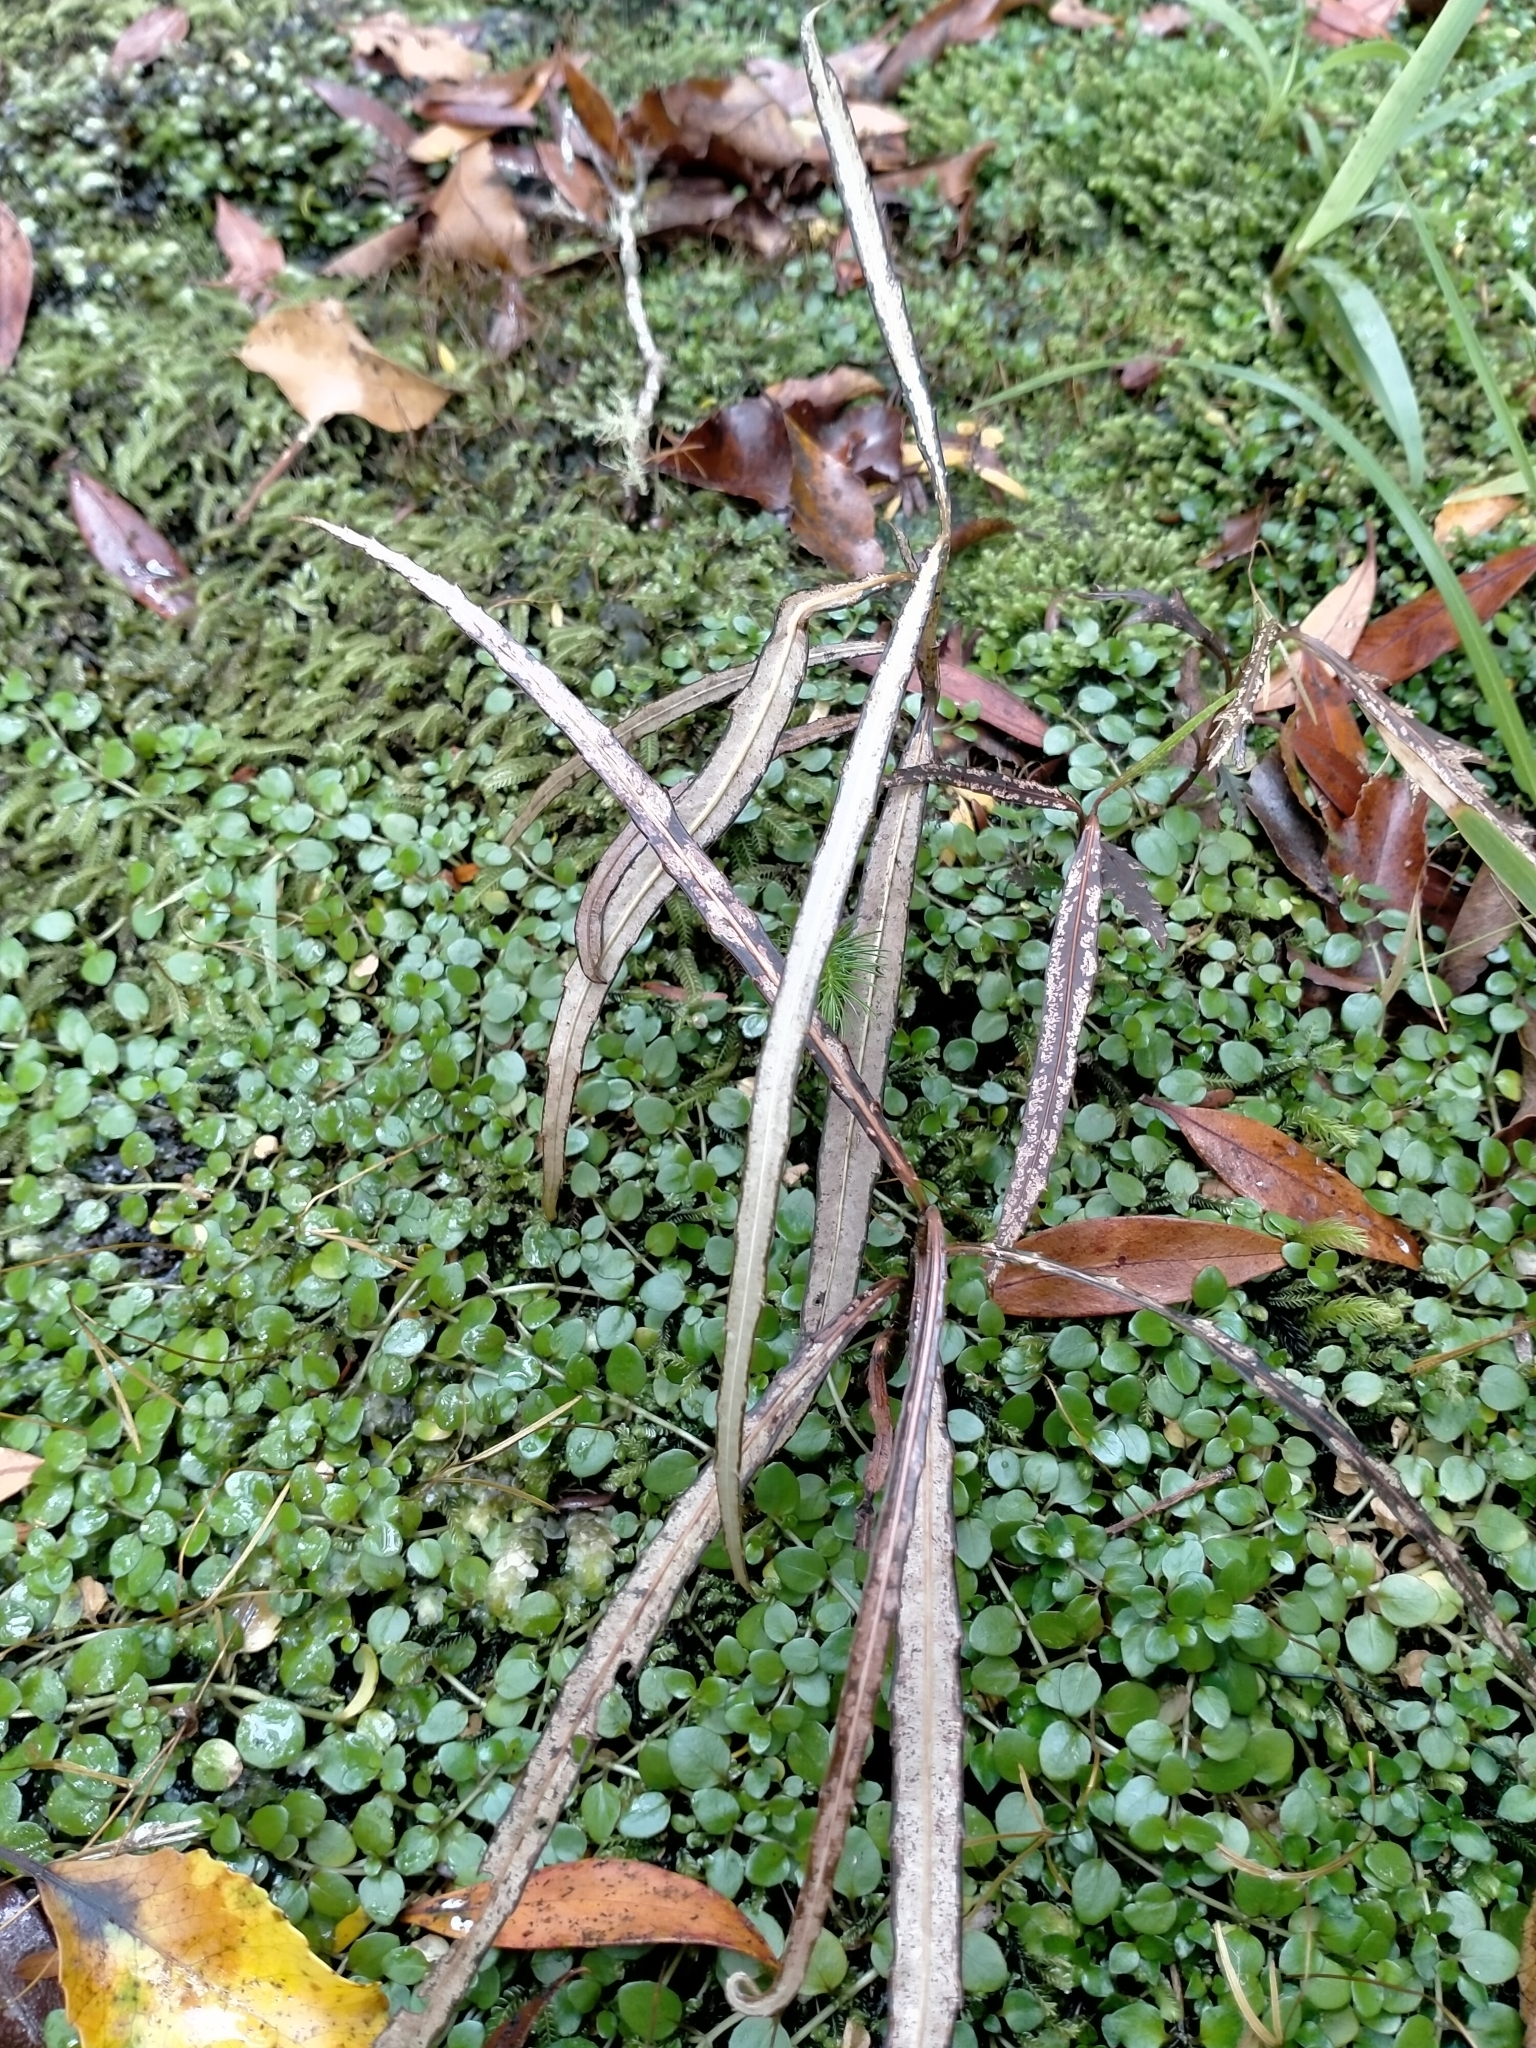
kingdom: Plantae
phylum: Tracheophyta
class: Magnoliopsida
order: Apiales
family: Araliaceae
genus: Pseudopanax
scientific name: Pseudopanax crassifolius
